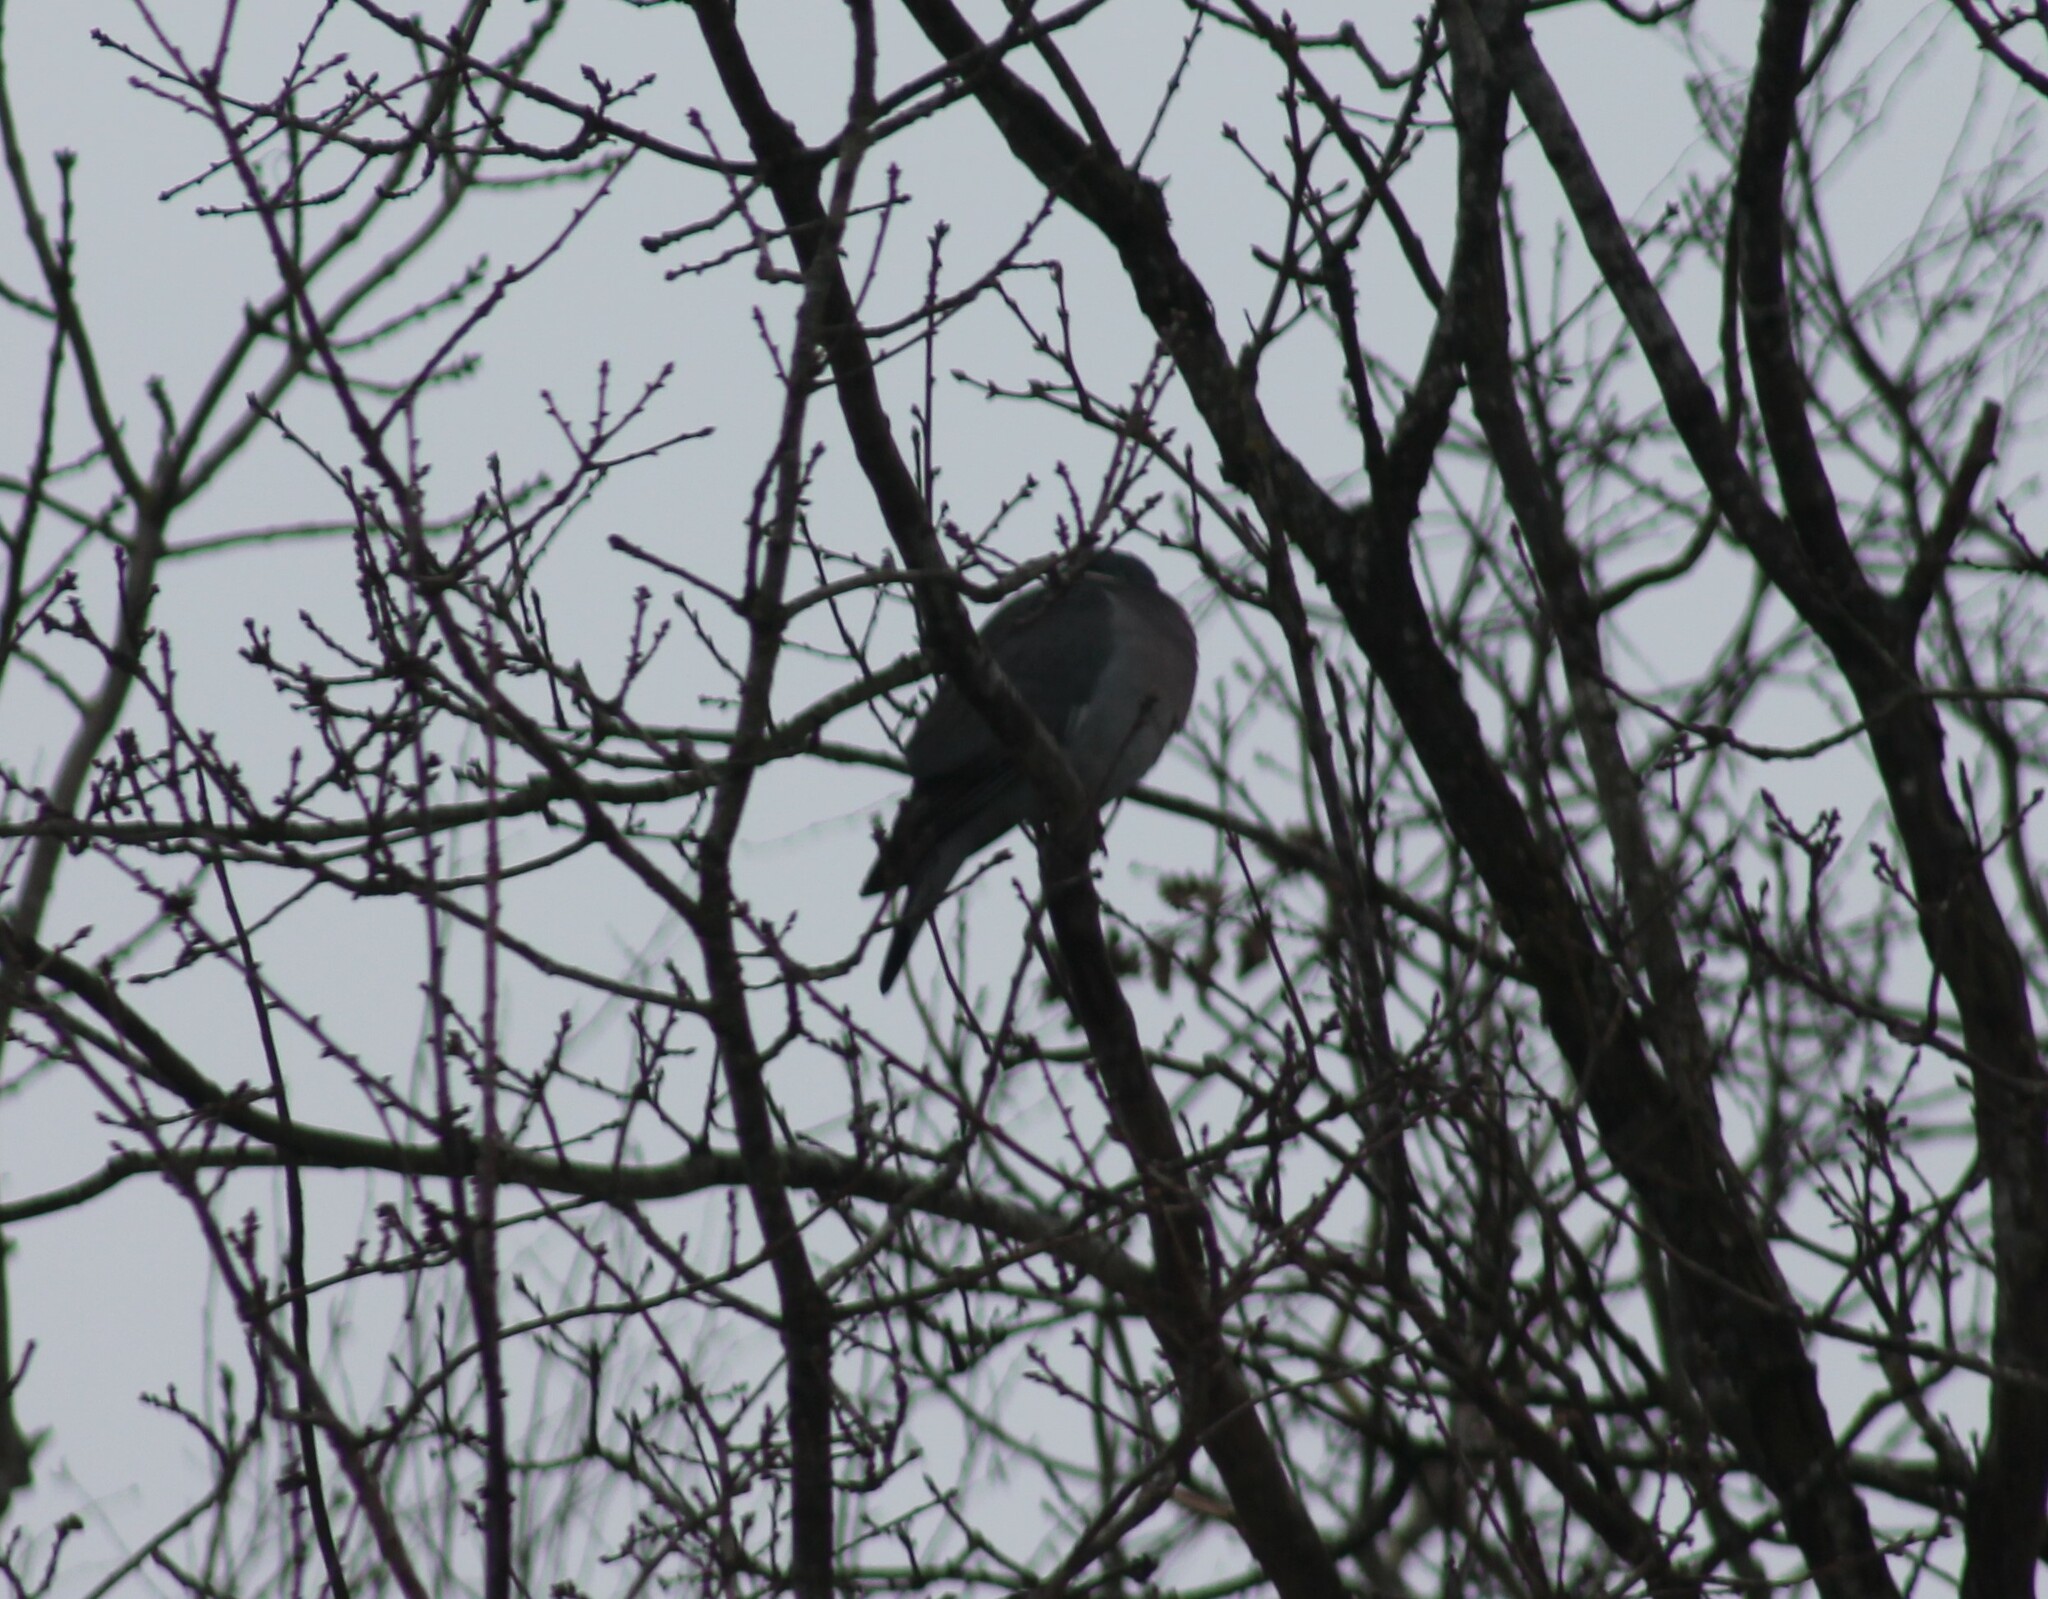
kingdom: Animalia
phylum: Chordata
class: Aves
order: Columbiformes
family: Columbidae
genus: Columba
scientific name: Columba palumbus
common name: Common wood pigeon
